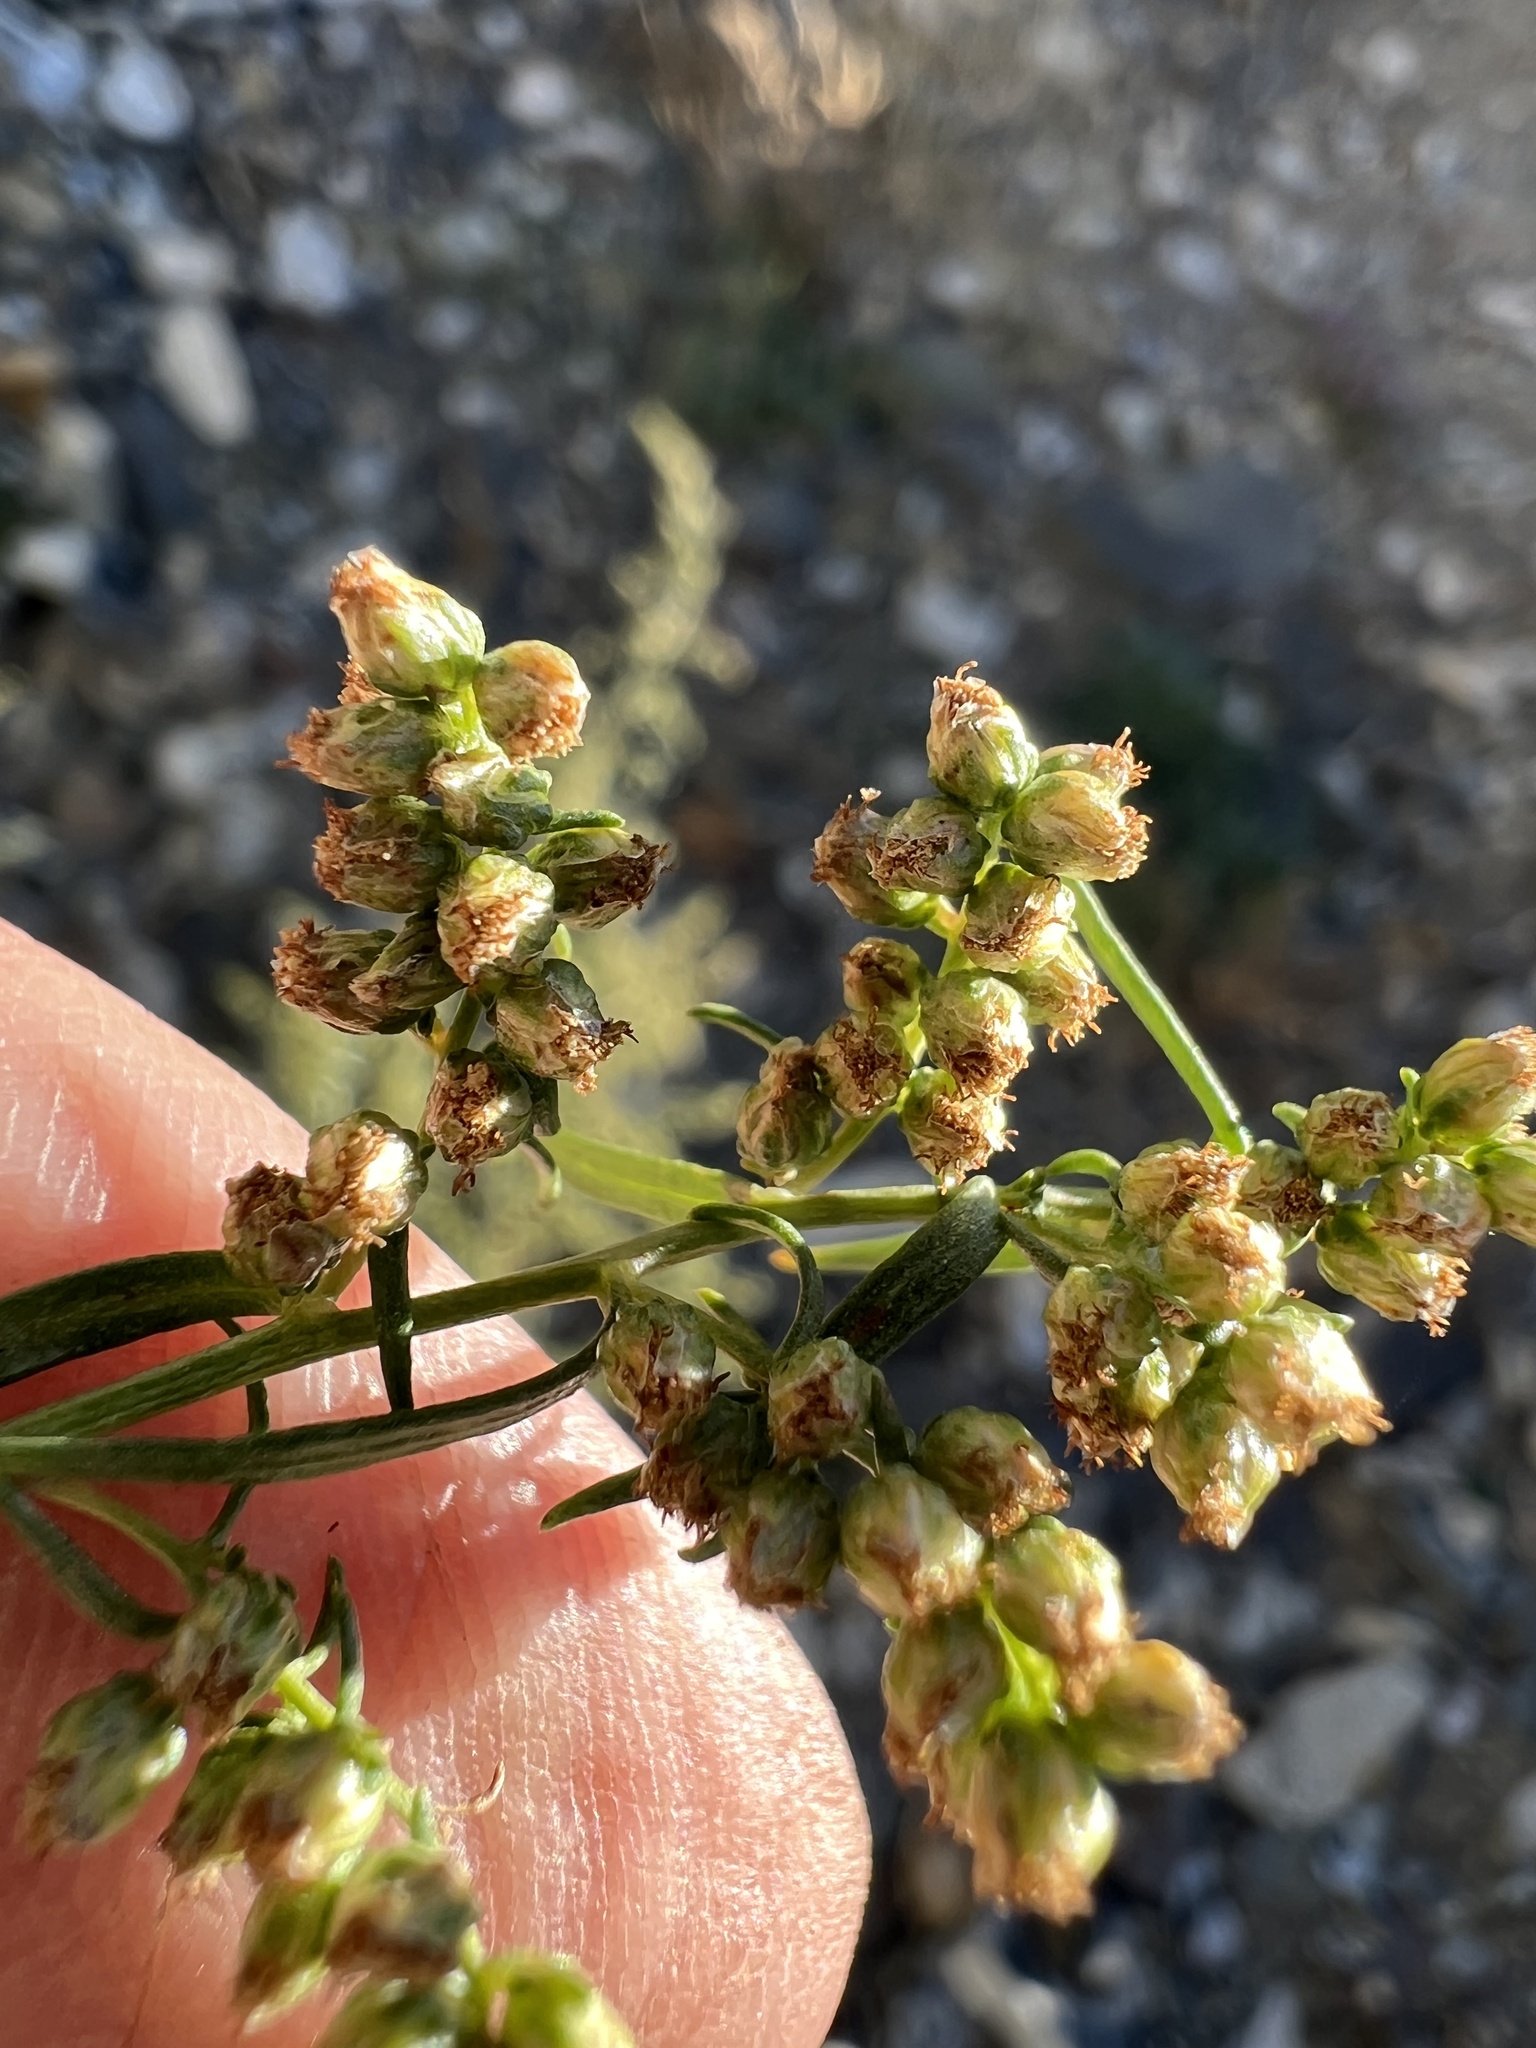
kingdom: Plantae
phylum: Tracheophyta
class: Magnoliopsida
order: Asterales
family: Asteraceae
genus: Artemisia
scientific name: Artemisia dracunculus
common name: Tarragon
